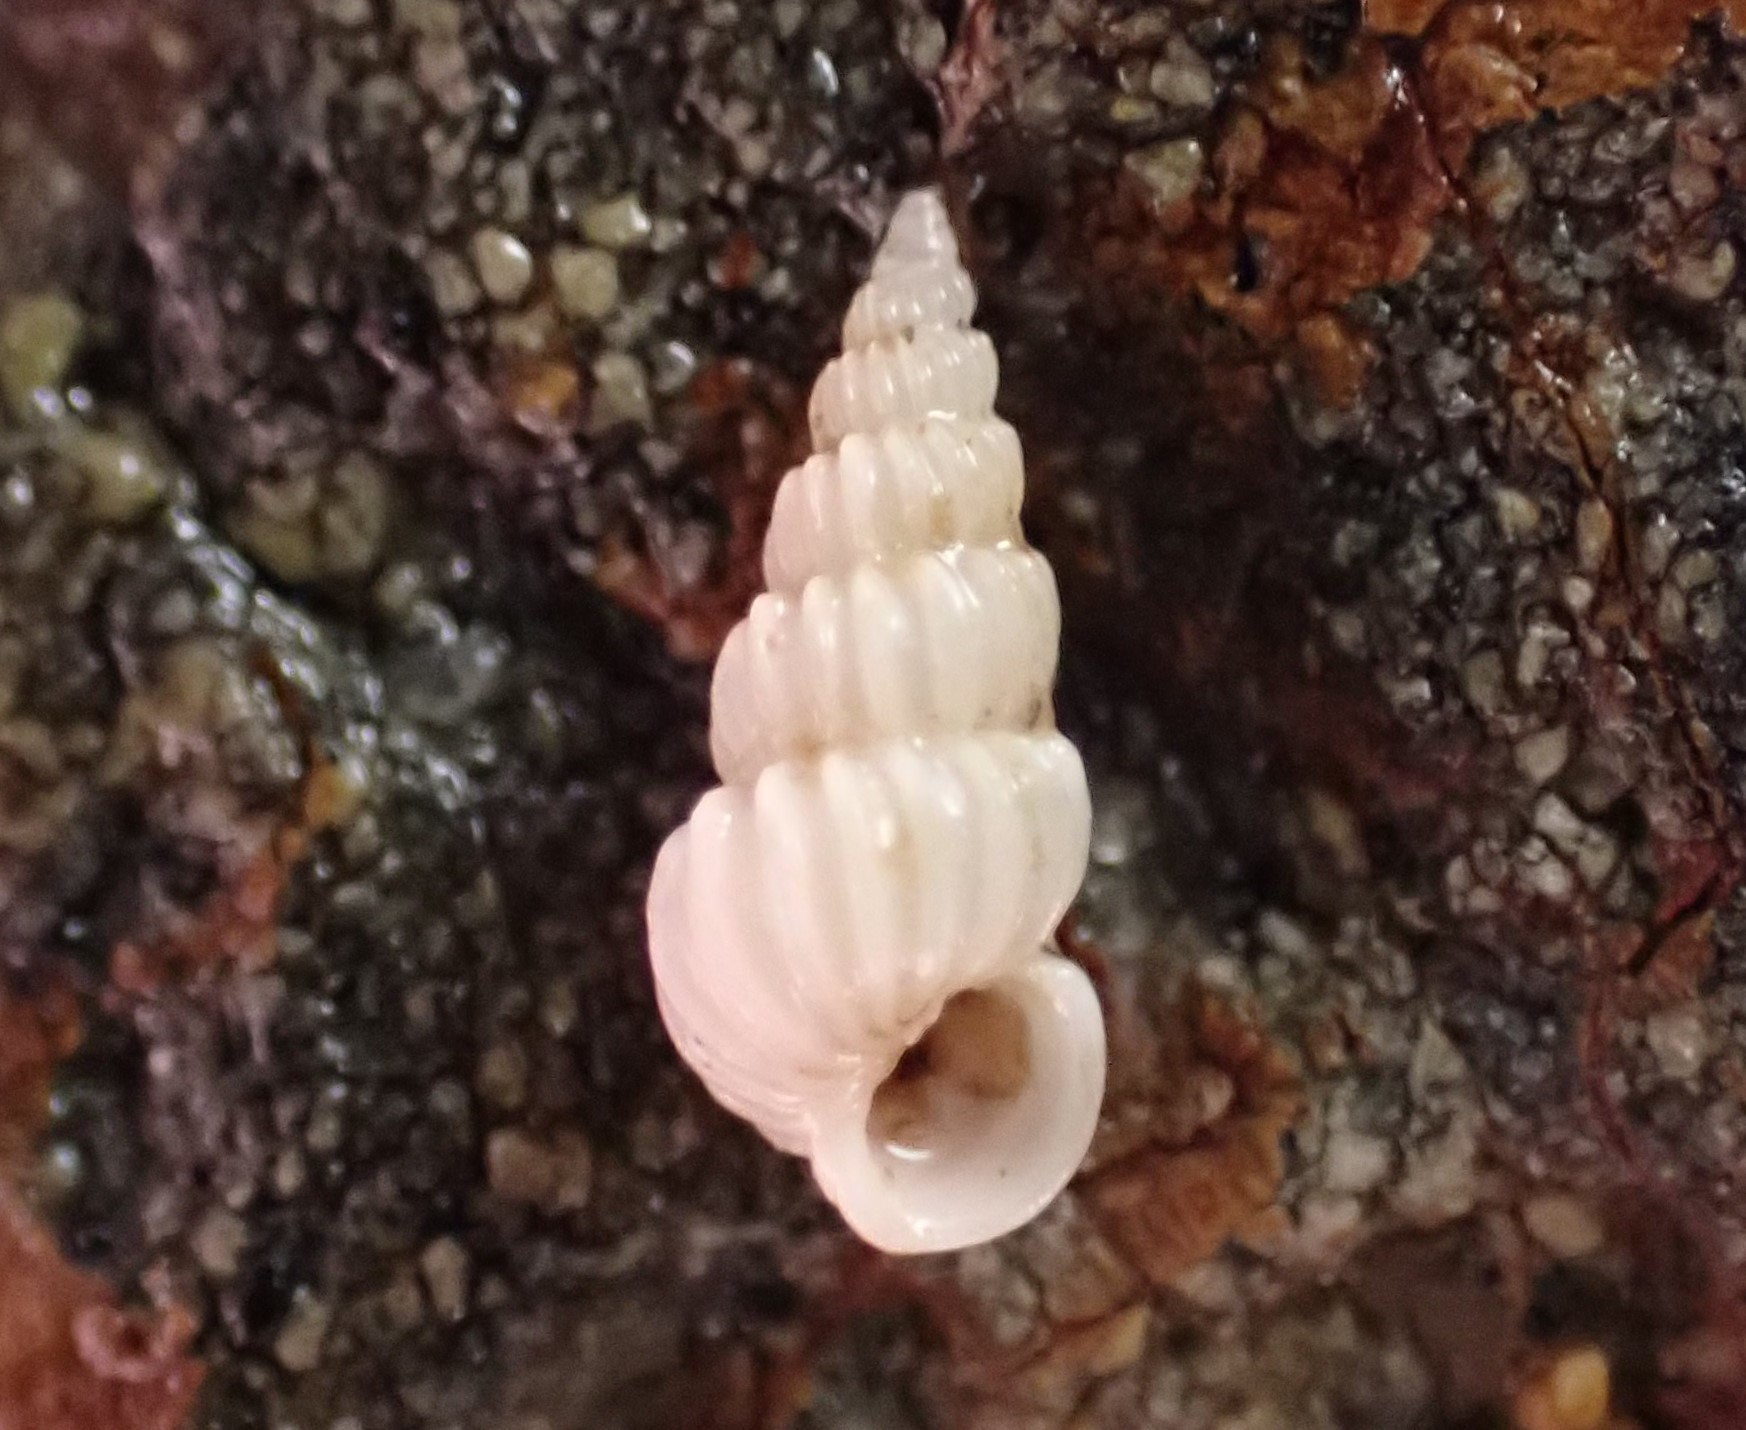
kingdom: Animalia
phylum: Mollusca
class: Gastropoda
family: Epitoniidae
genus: Epitonium
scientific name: Epitonium jukesianum
